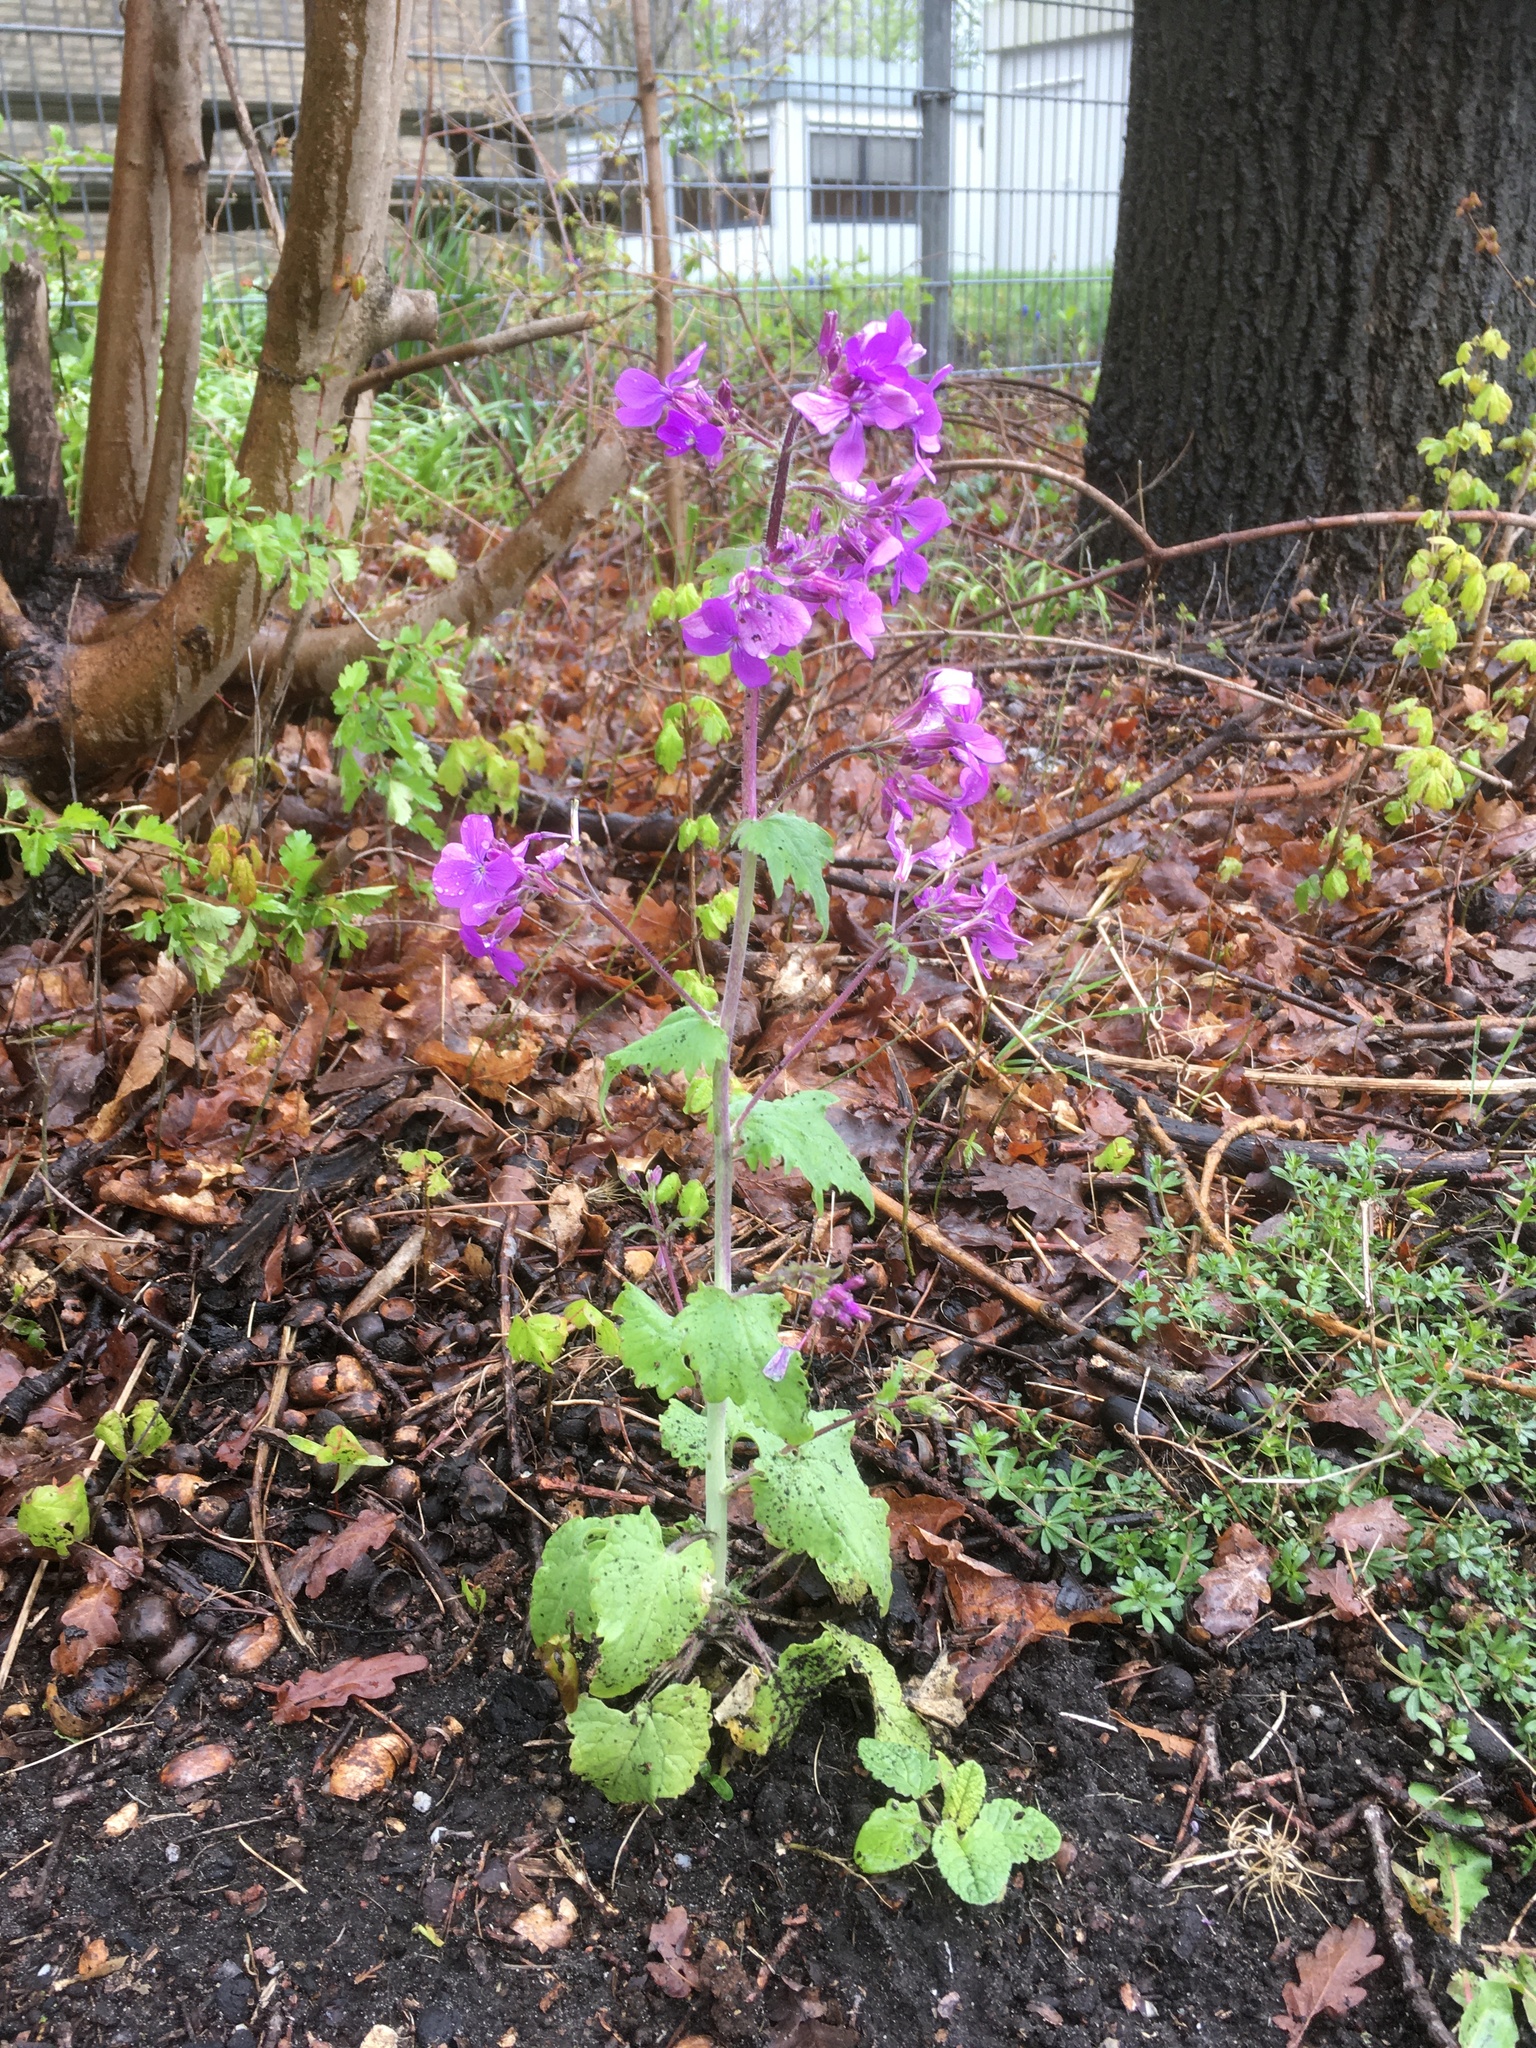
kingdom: Plantae
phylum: Tracheophyta
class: Magnoliopsida
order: Brassicales
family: Brassicaceae
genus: Lunaria
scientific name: Lunaria annua
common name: Honesty
